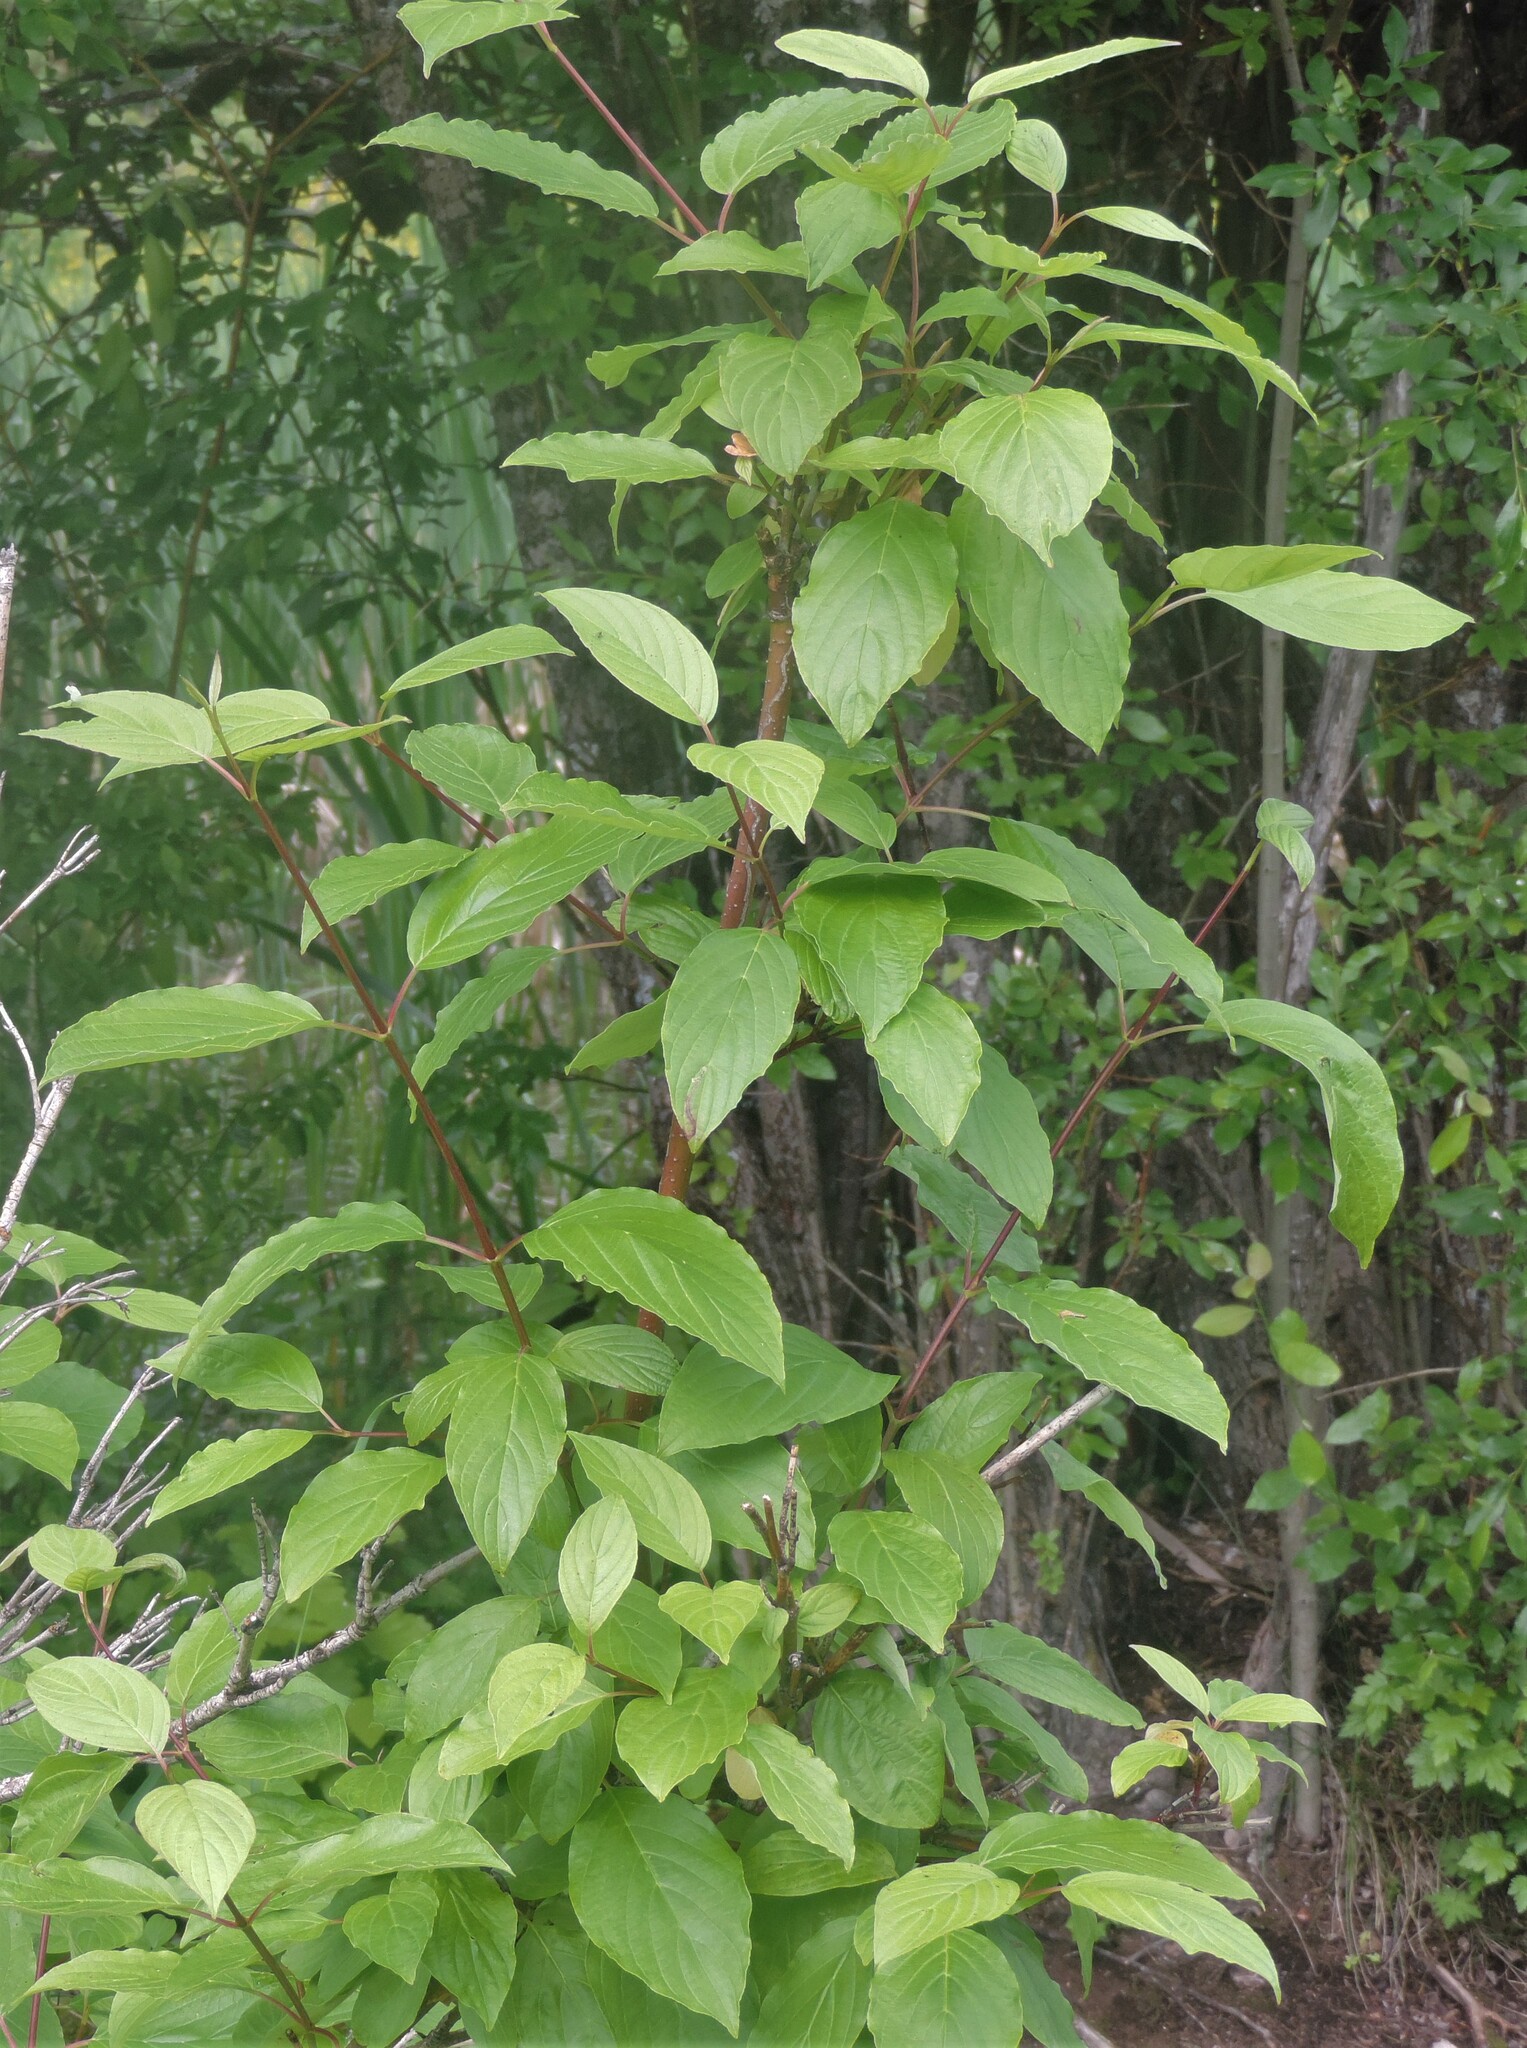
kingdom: Plantae
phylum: Tracheophyta
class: Magnoliopsida
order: Cornales
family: Cornaceae
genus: Cornus
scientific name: Cornus sericea
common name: Red-osier dogwood
